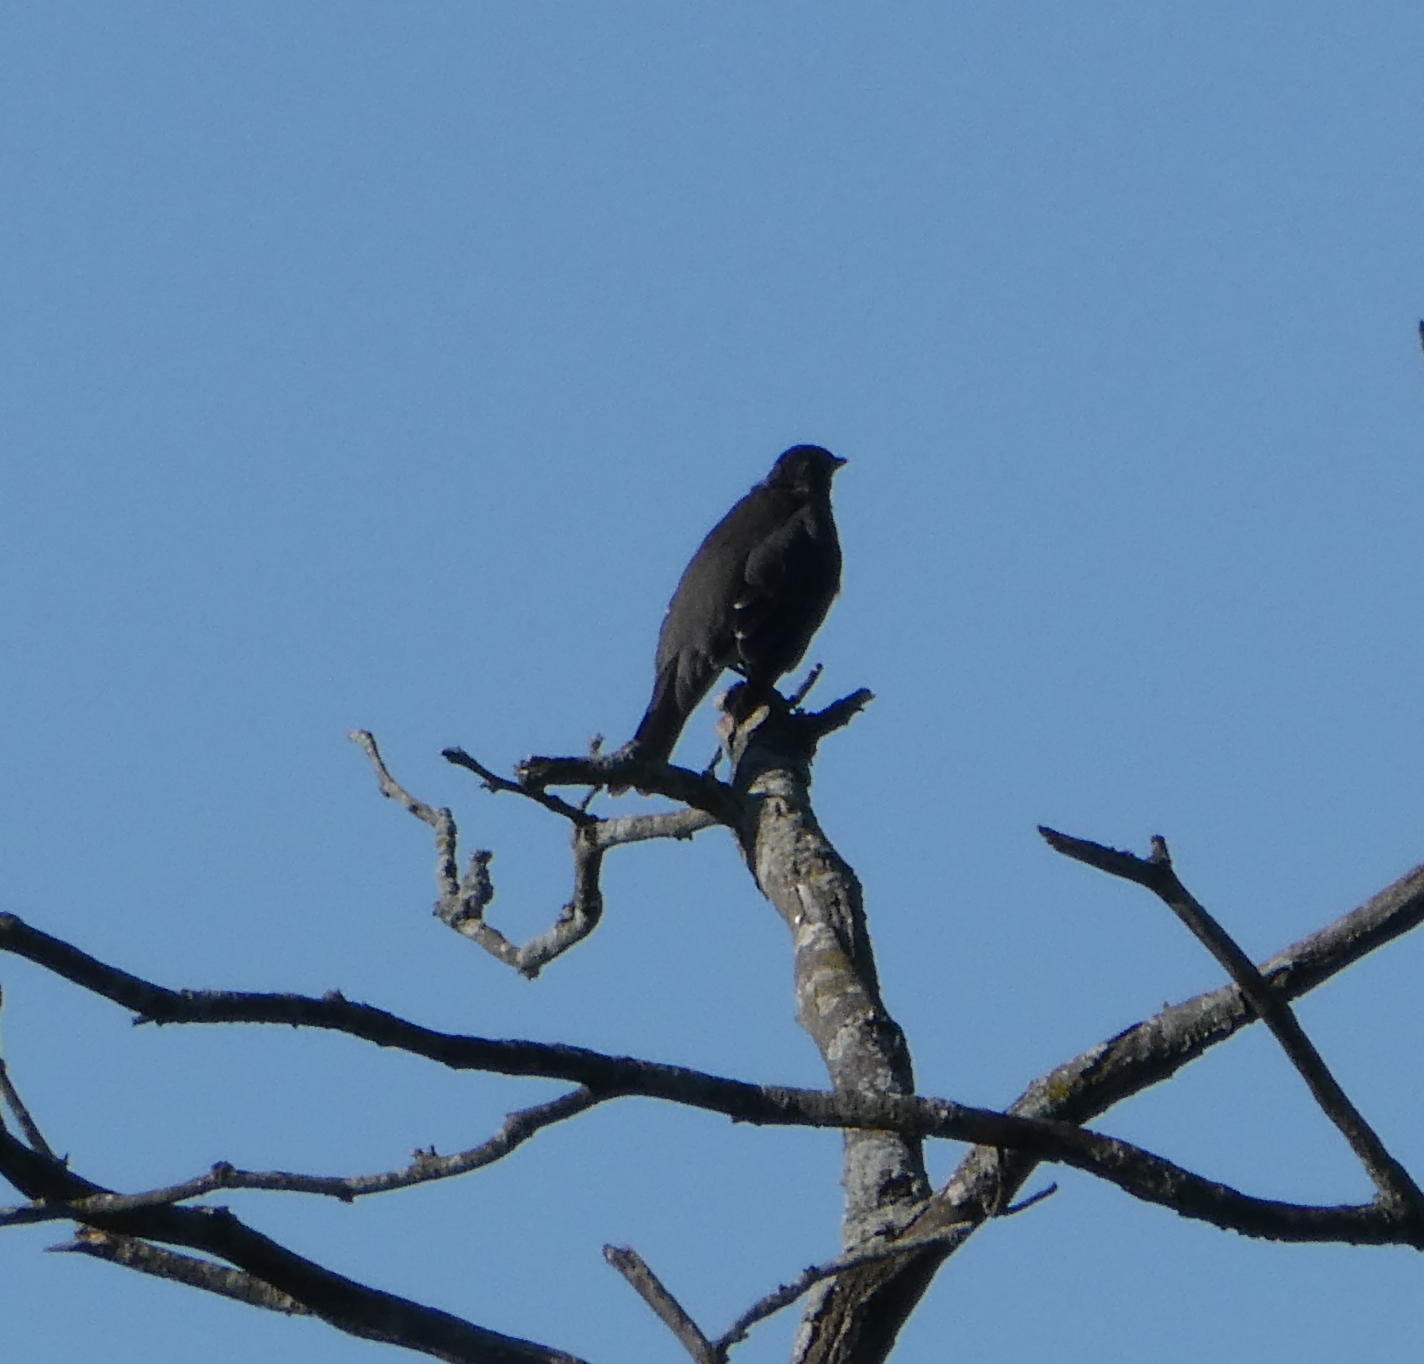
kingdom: Animalia
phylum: Chordata
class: Aves
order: Passeriformes
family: Turdidae
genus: Turdus
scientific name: Turdus migratorius
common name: American robin
